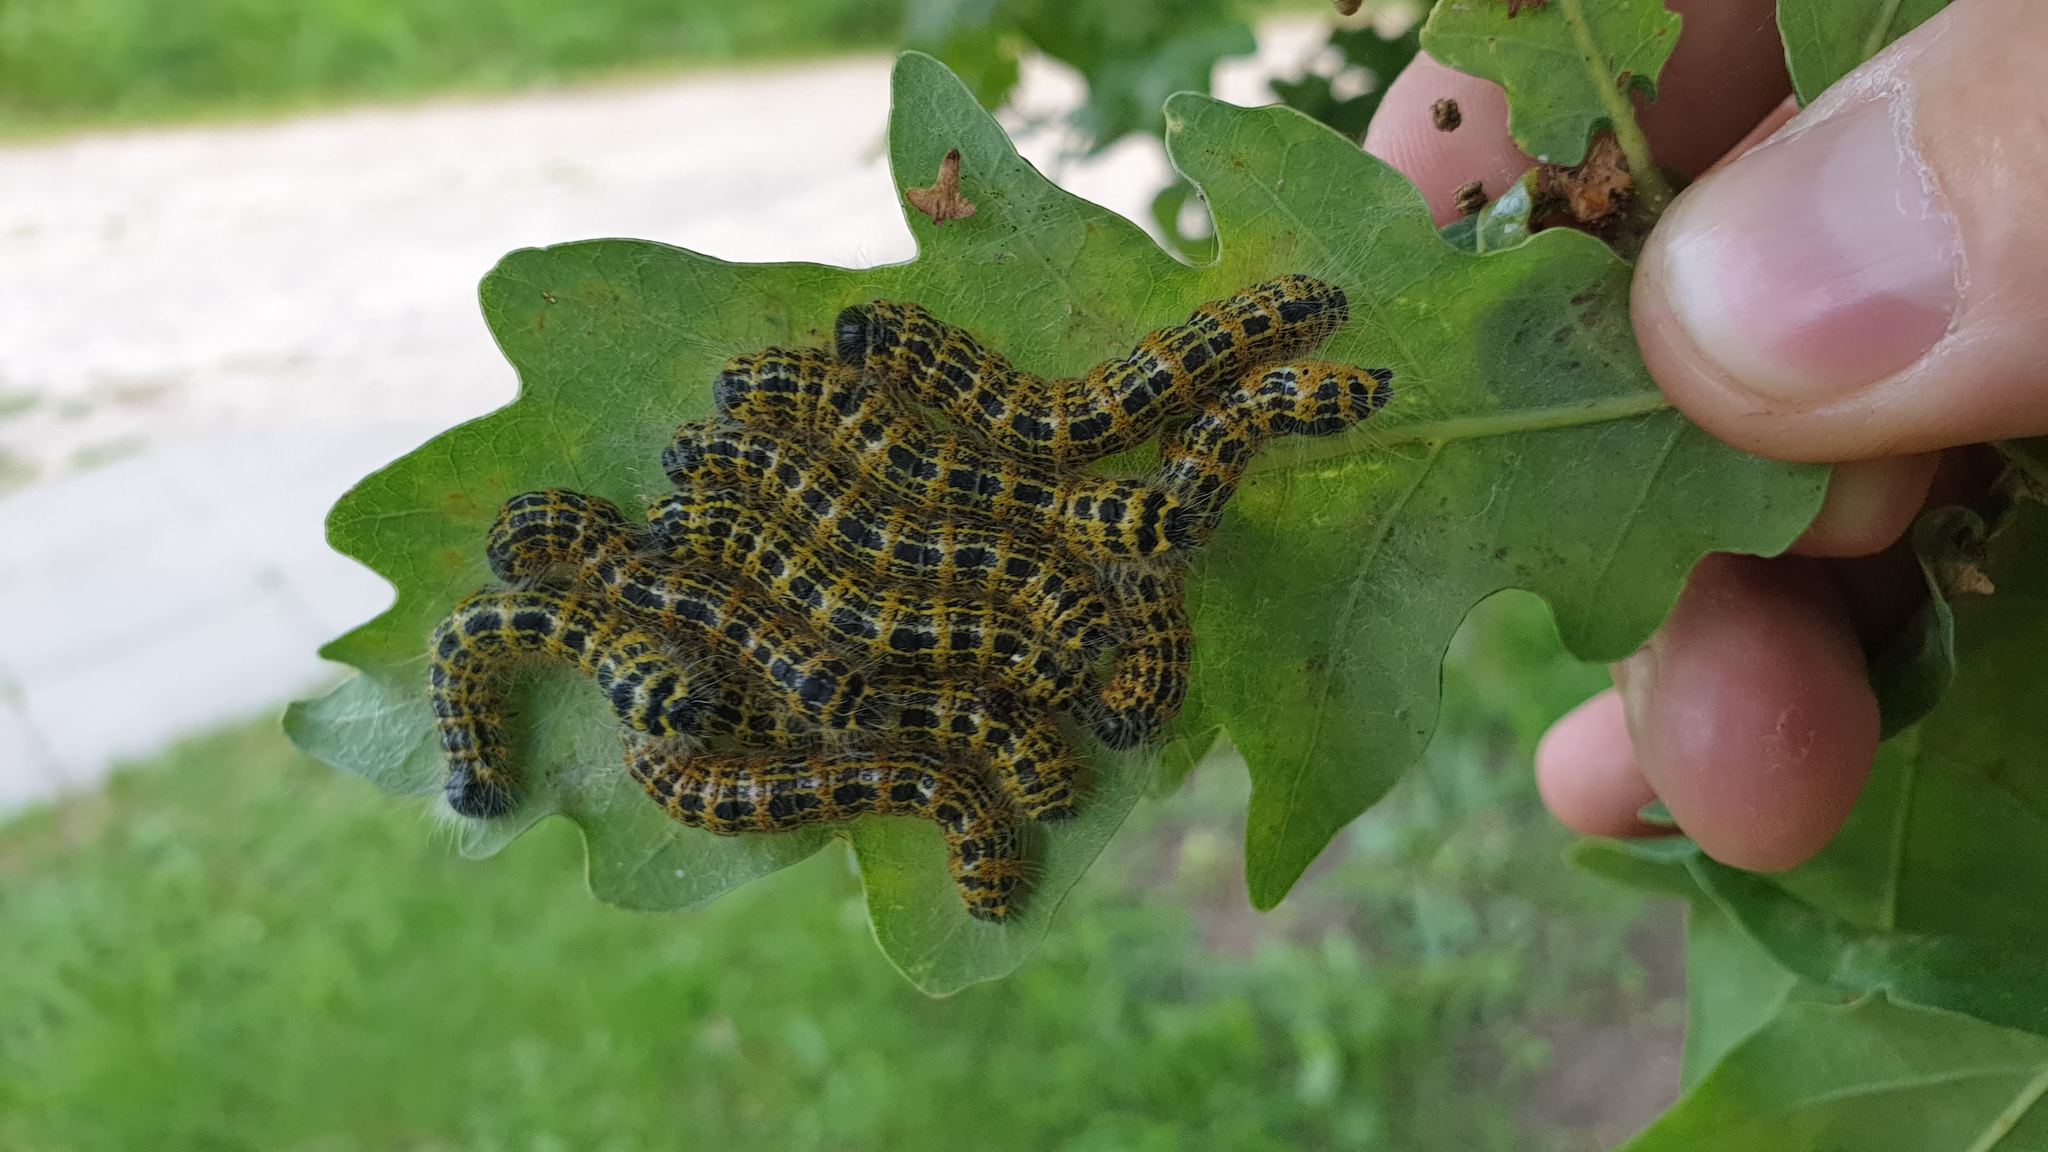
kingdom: Animalia
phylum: Arthropoda
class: Insecta
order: Lepidoptera
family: Notodontidae
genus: Phalera
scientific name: Phalera bucephala
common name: Buff-tip
